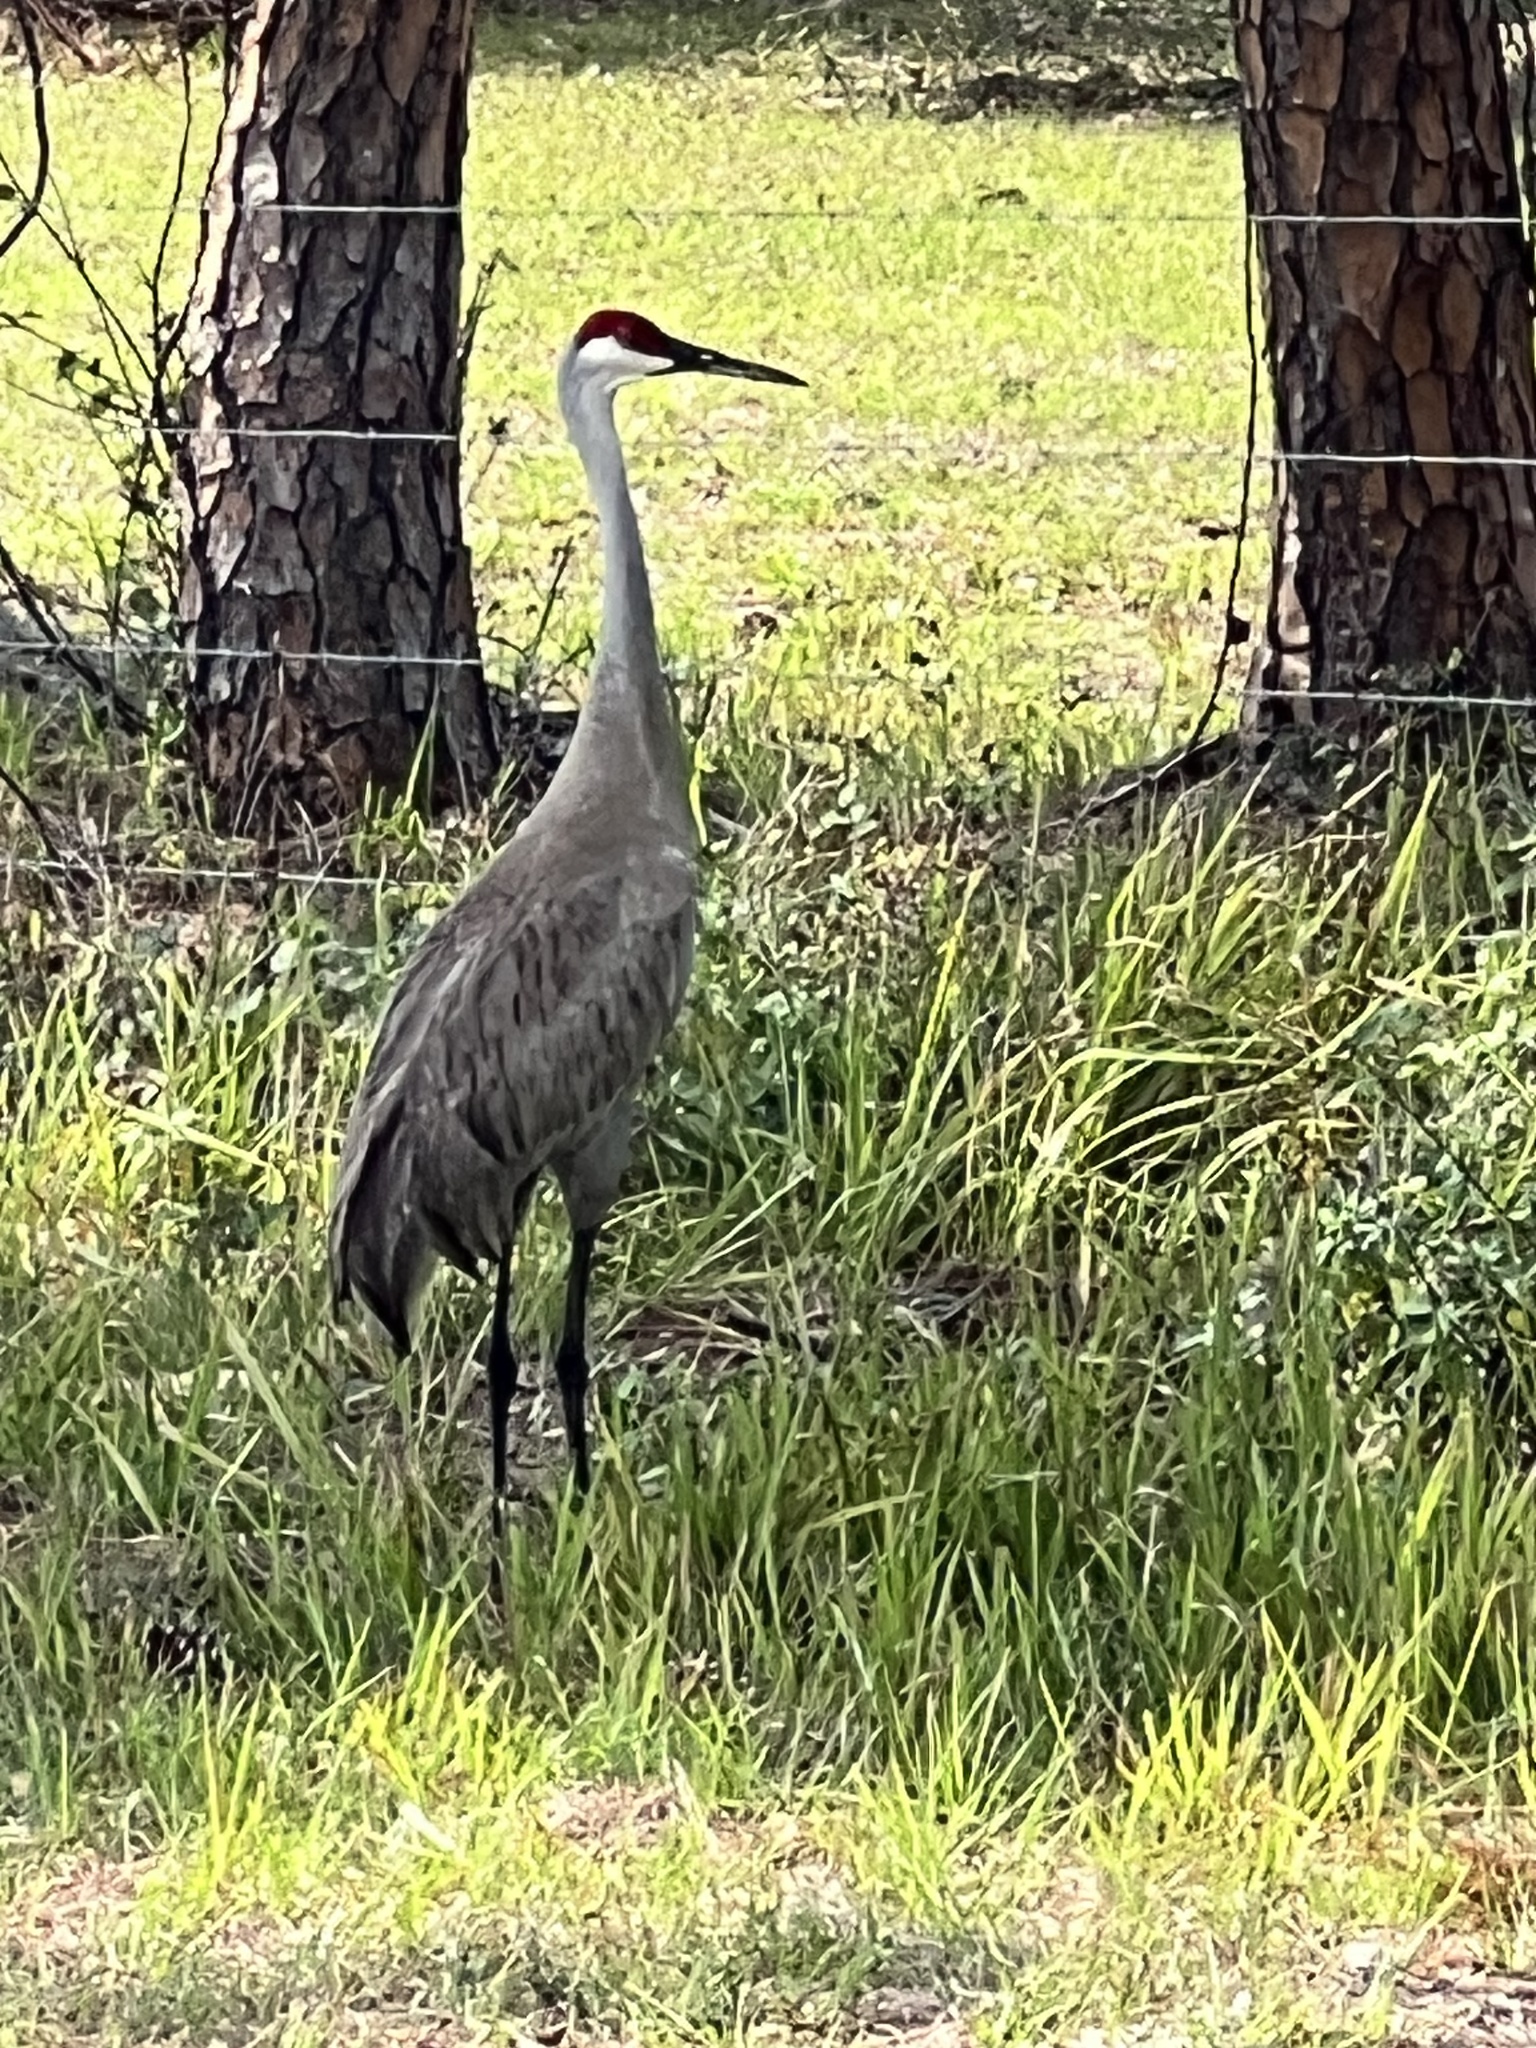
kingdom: Animalia
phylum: Chordata
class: Aves
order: Gruiformes
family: Gruidae
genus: Grus
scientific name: Grus canadensis
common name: Sandhill crane
